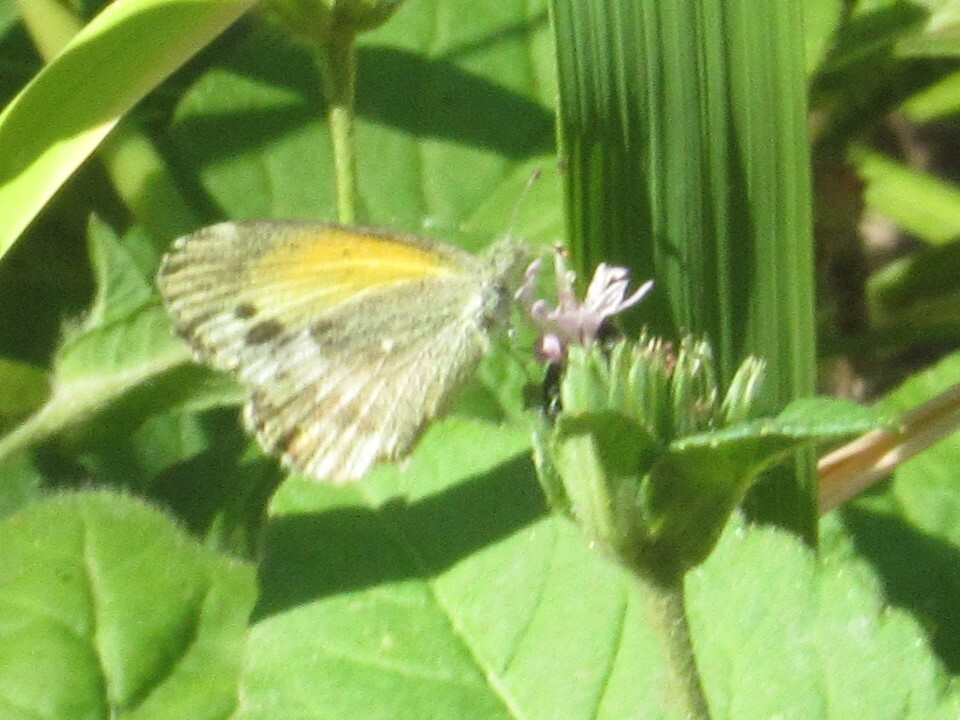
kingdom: Animalia
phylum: Arthropoda
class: Insecta
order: Lepidoptera
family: Pieridae
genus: Nathalis
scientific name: Nathalis iole
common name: Dainty sulphur
